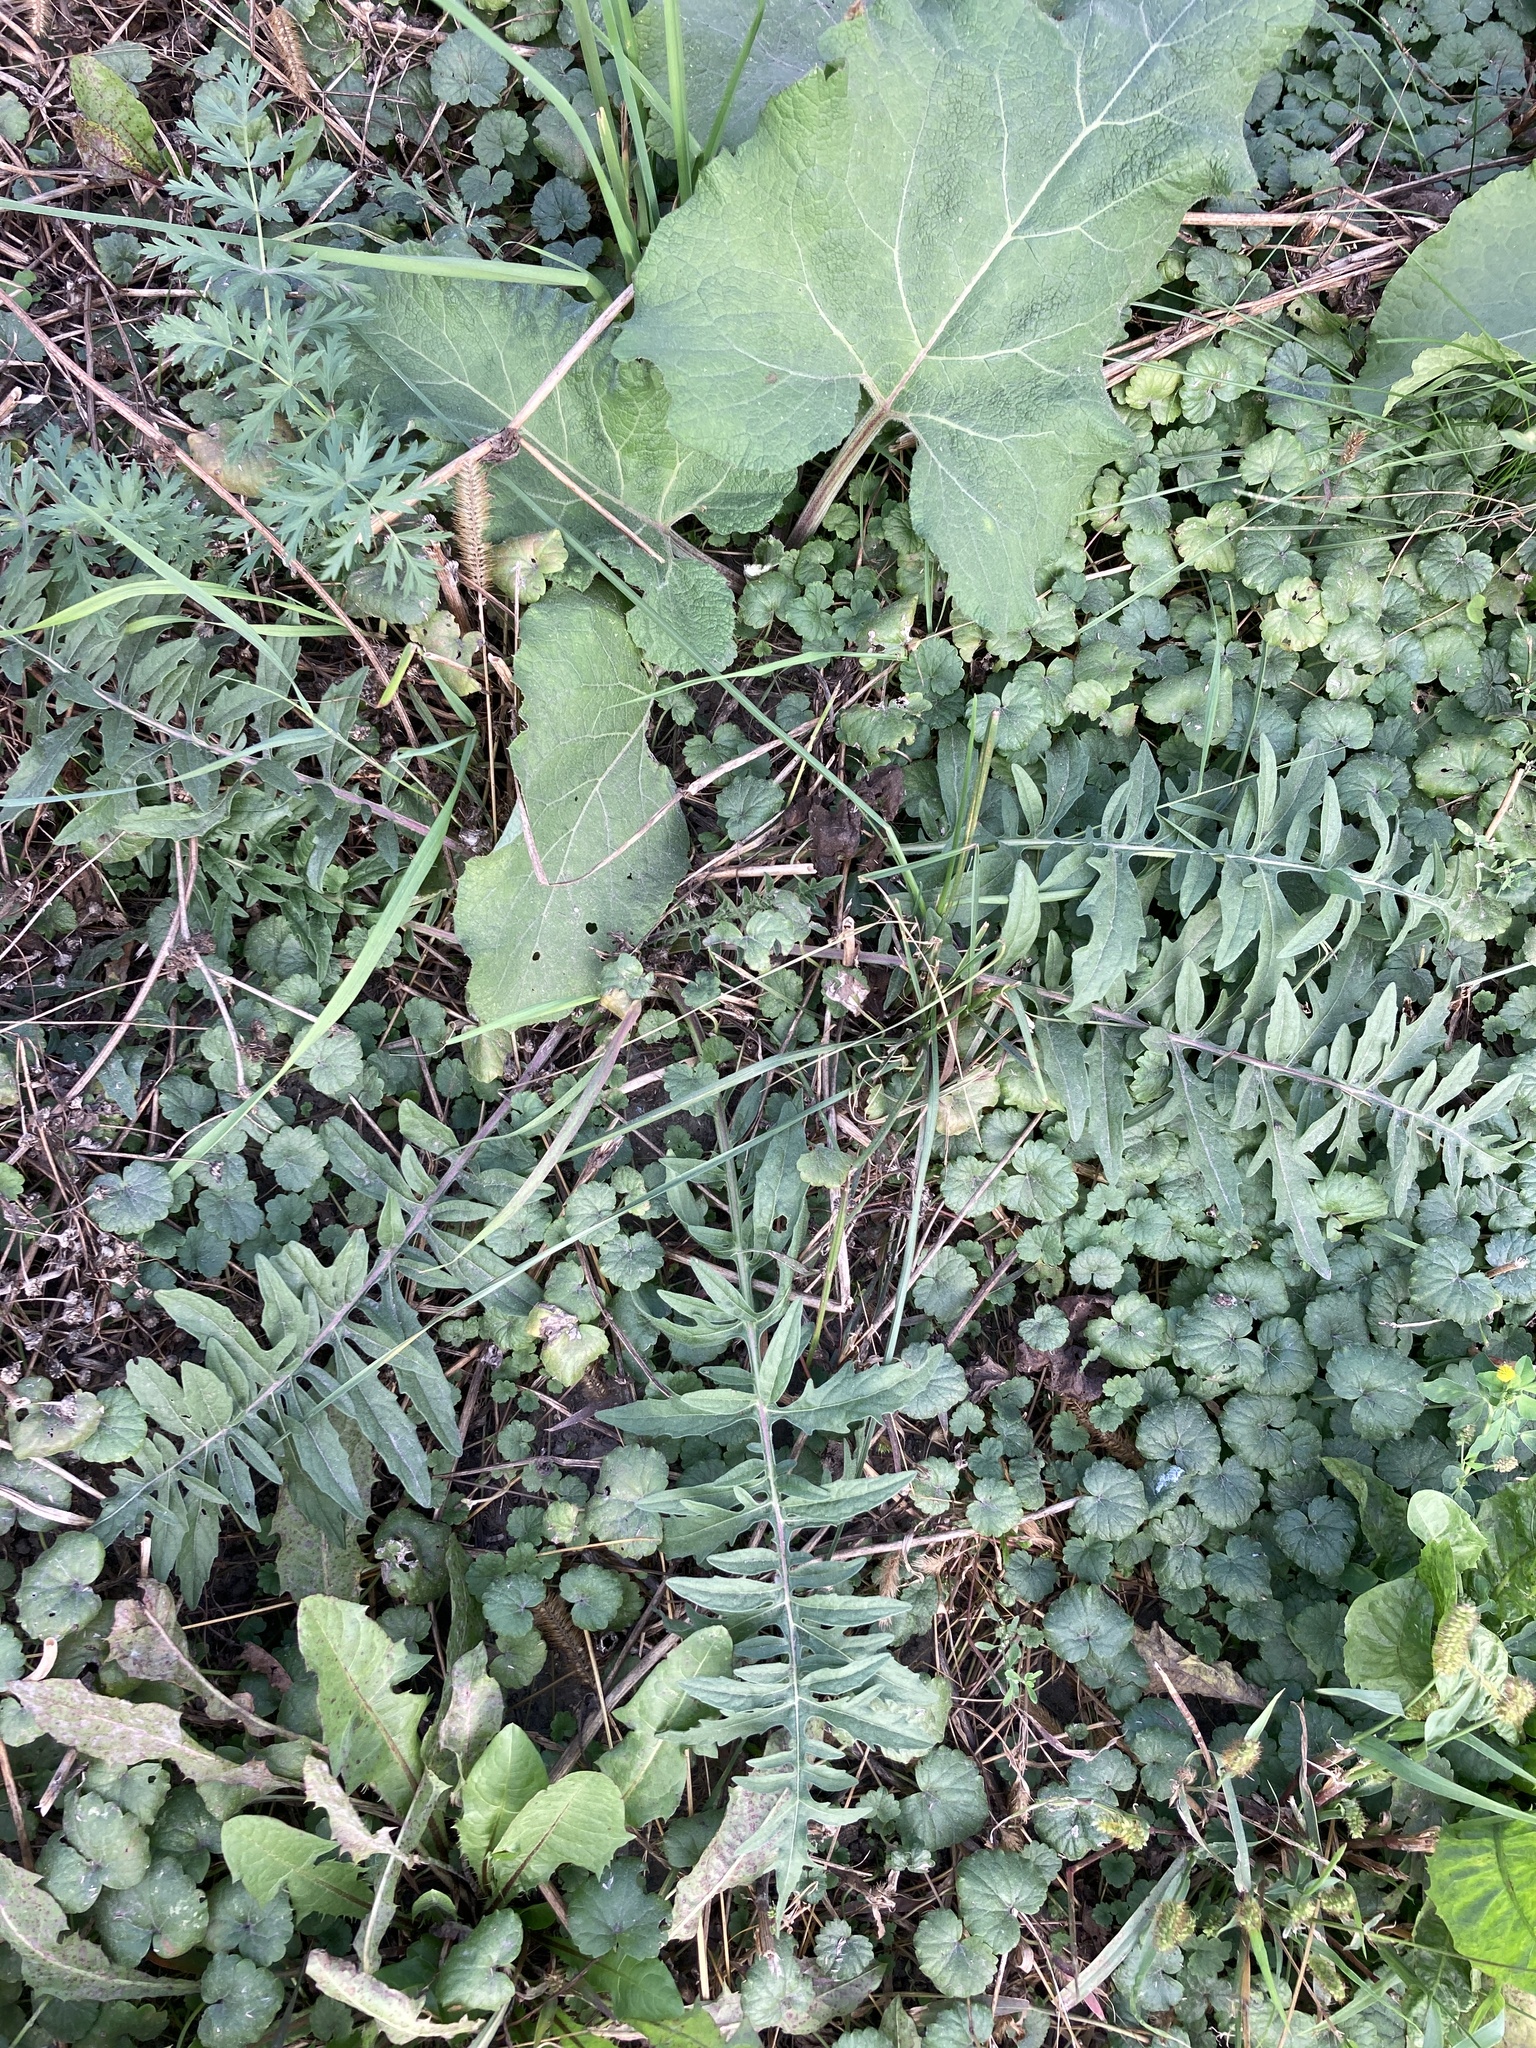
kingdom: Plantae
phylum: Tracheophyta
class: Magnoliopsida
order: Asterales
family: Asteraceae
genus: Centaurea
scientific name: Centaurea scabiosa
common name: Greater knapweed
